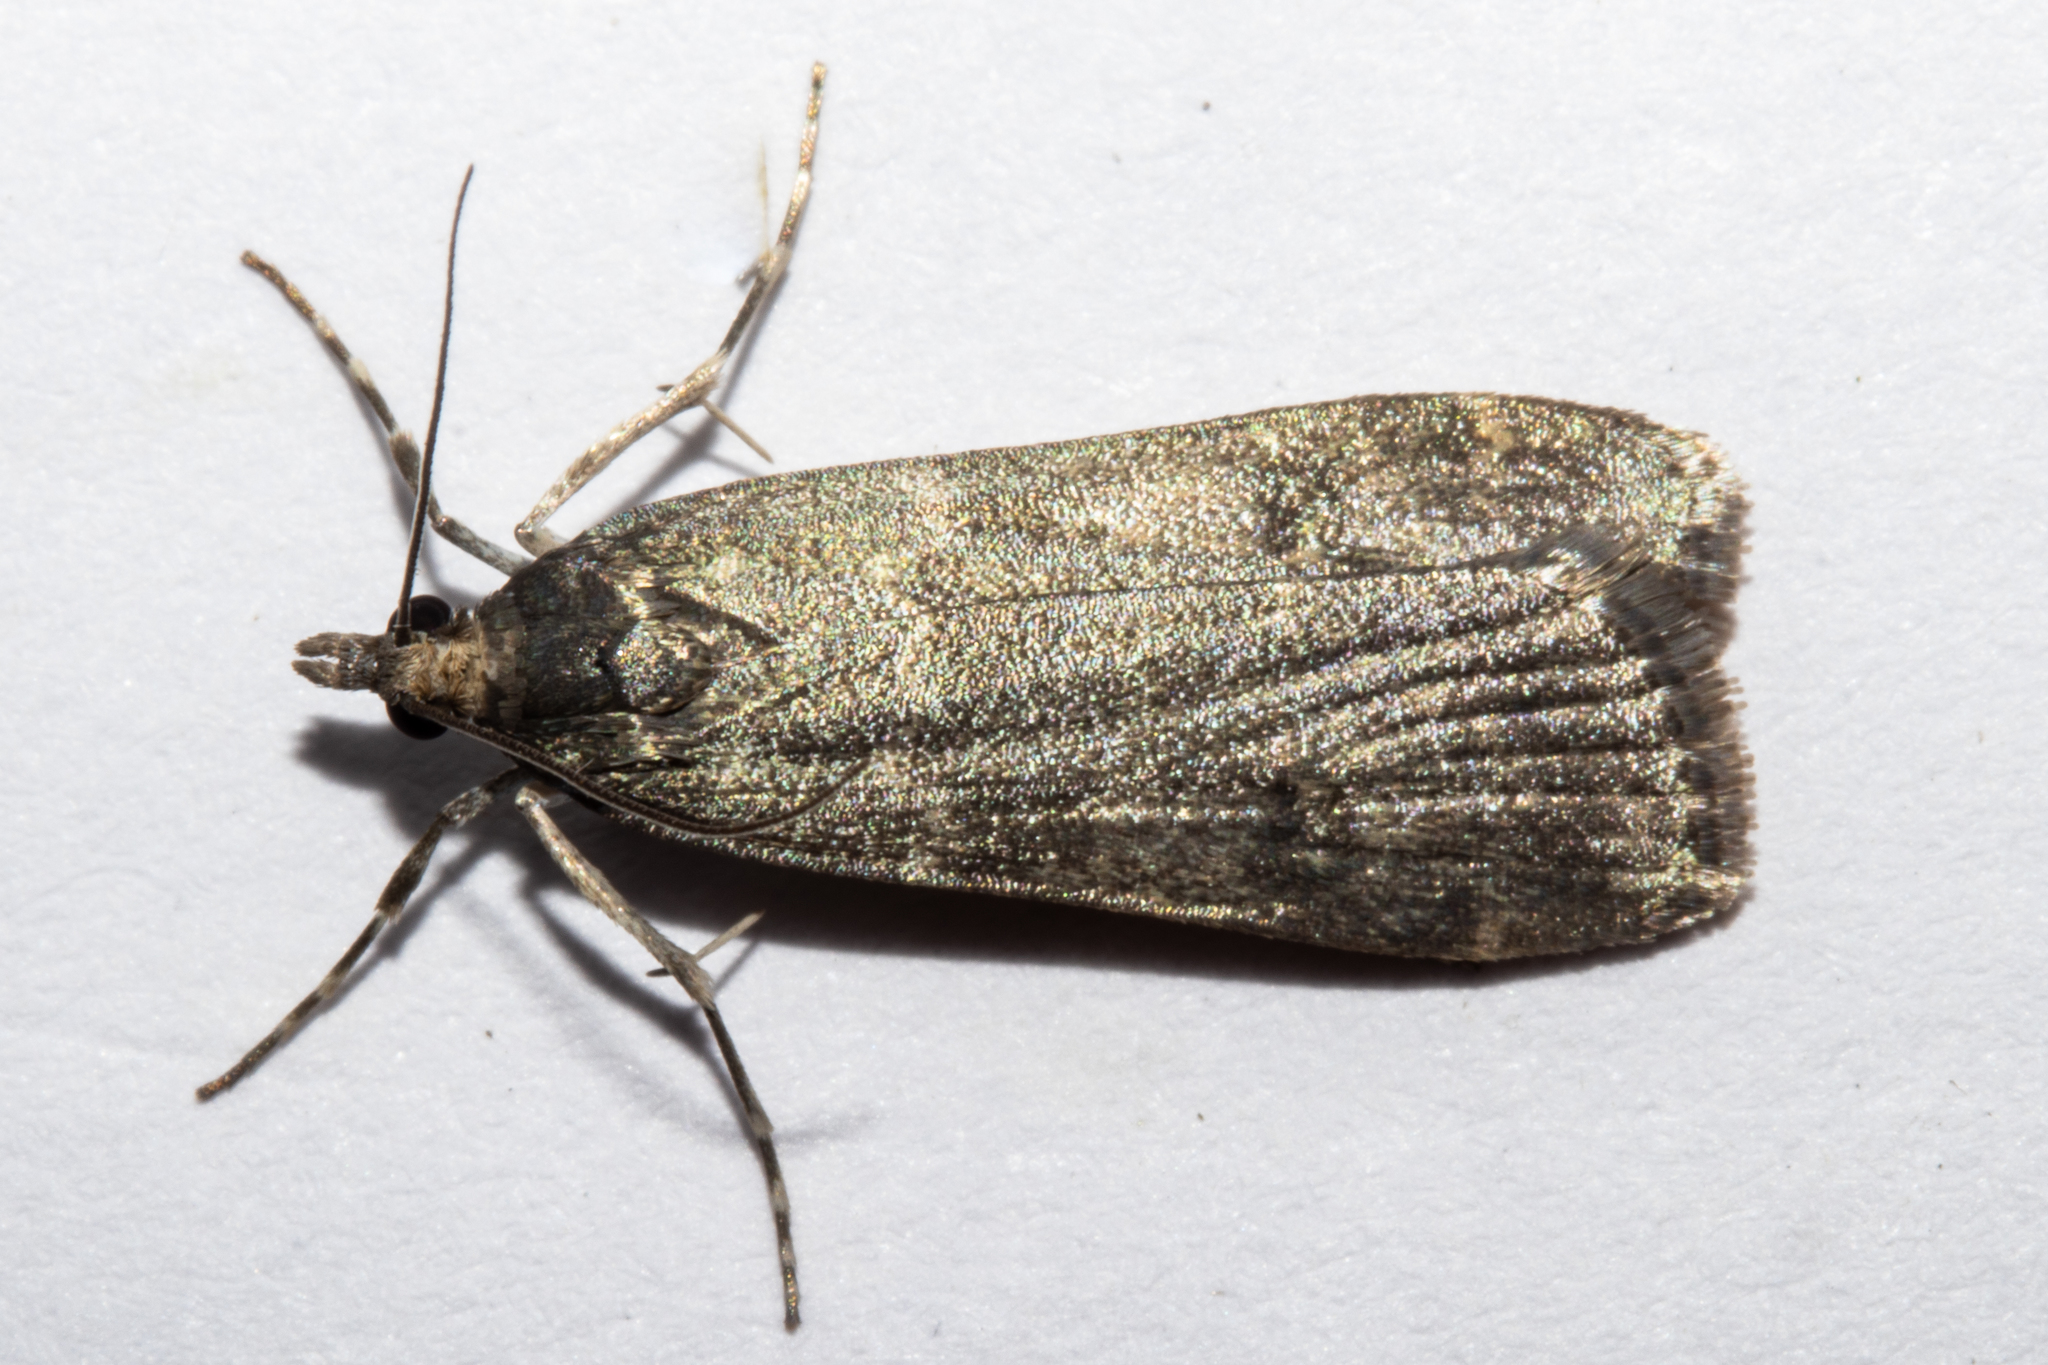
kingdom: Animalia
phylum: Arthropoda
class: Insecta
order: Lepidoptera
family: Crambidae
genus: Eudonia
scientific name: Eudonia cataxesta
